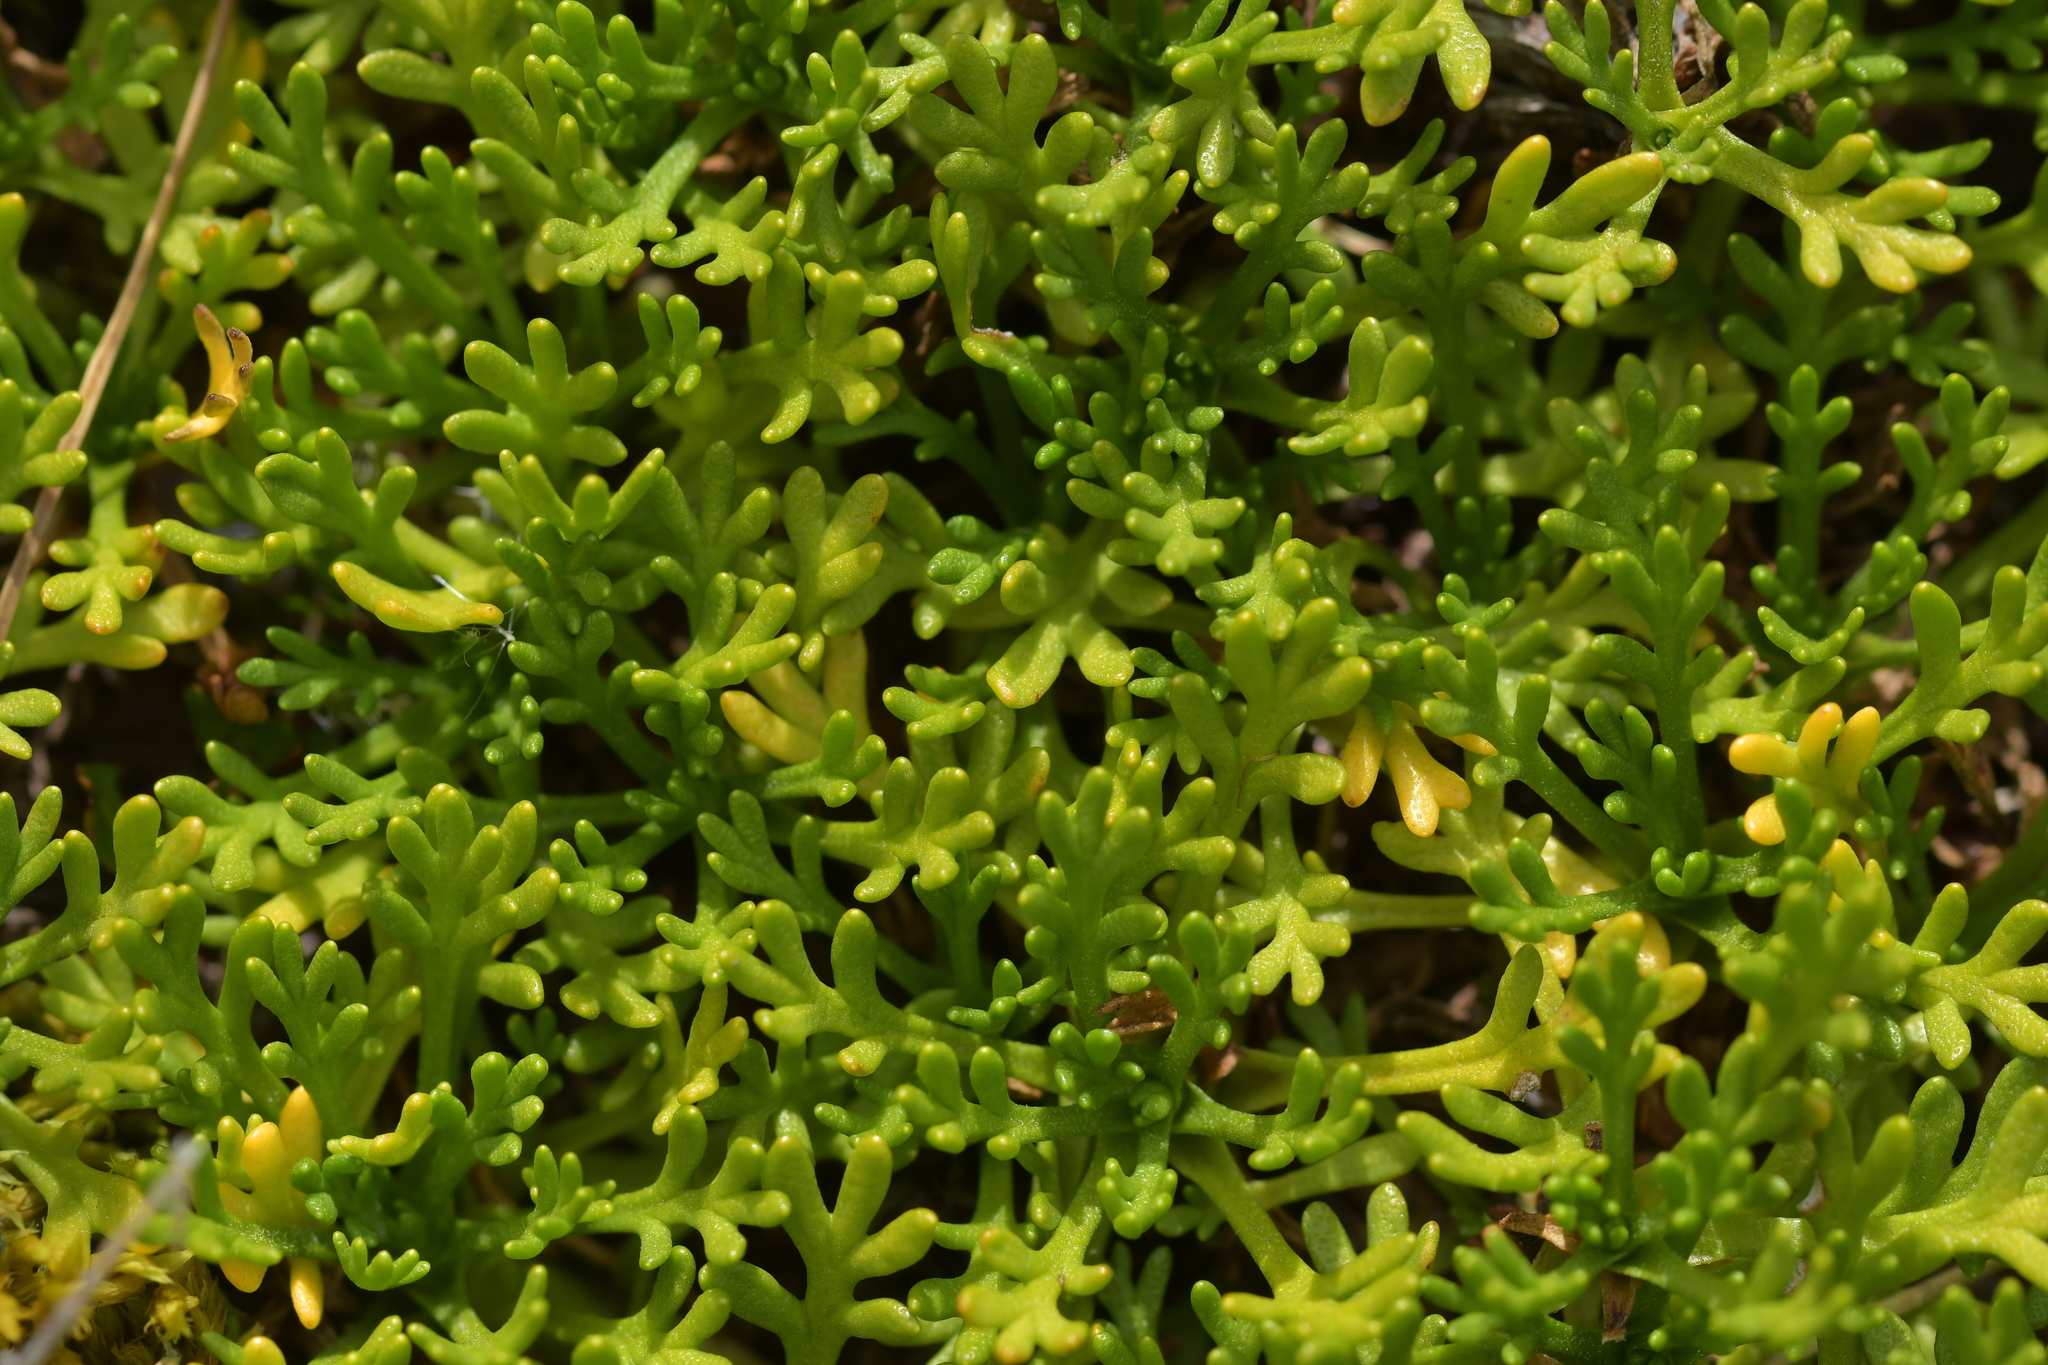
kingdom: Plantae
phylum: Tracheophyta
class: Magnoliopsida
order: Asterales
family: Asteraceae
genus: Leptinella
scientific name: Leptinella pyrethrifolia
